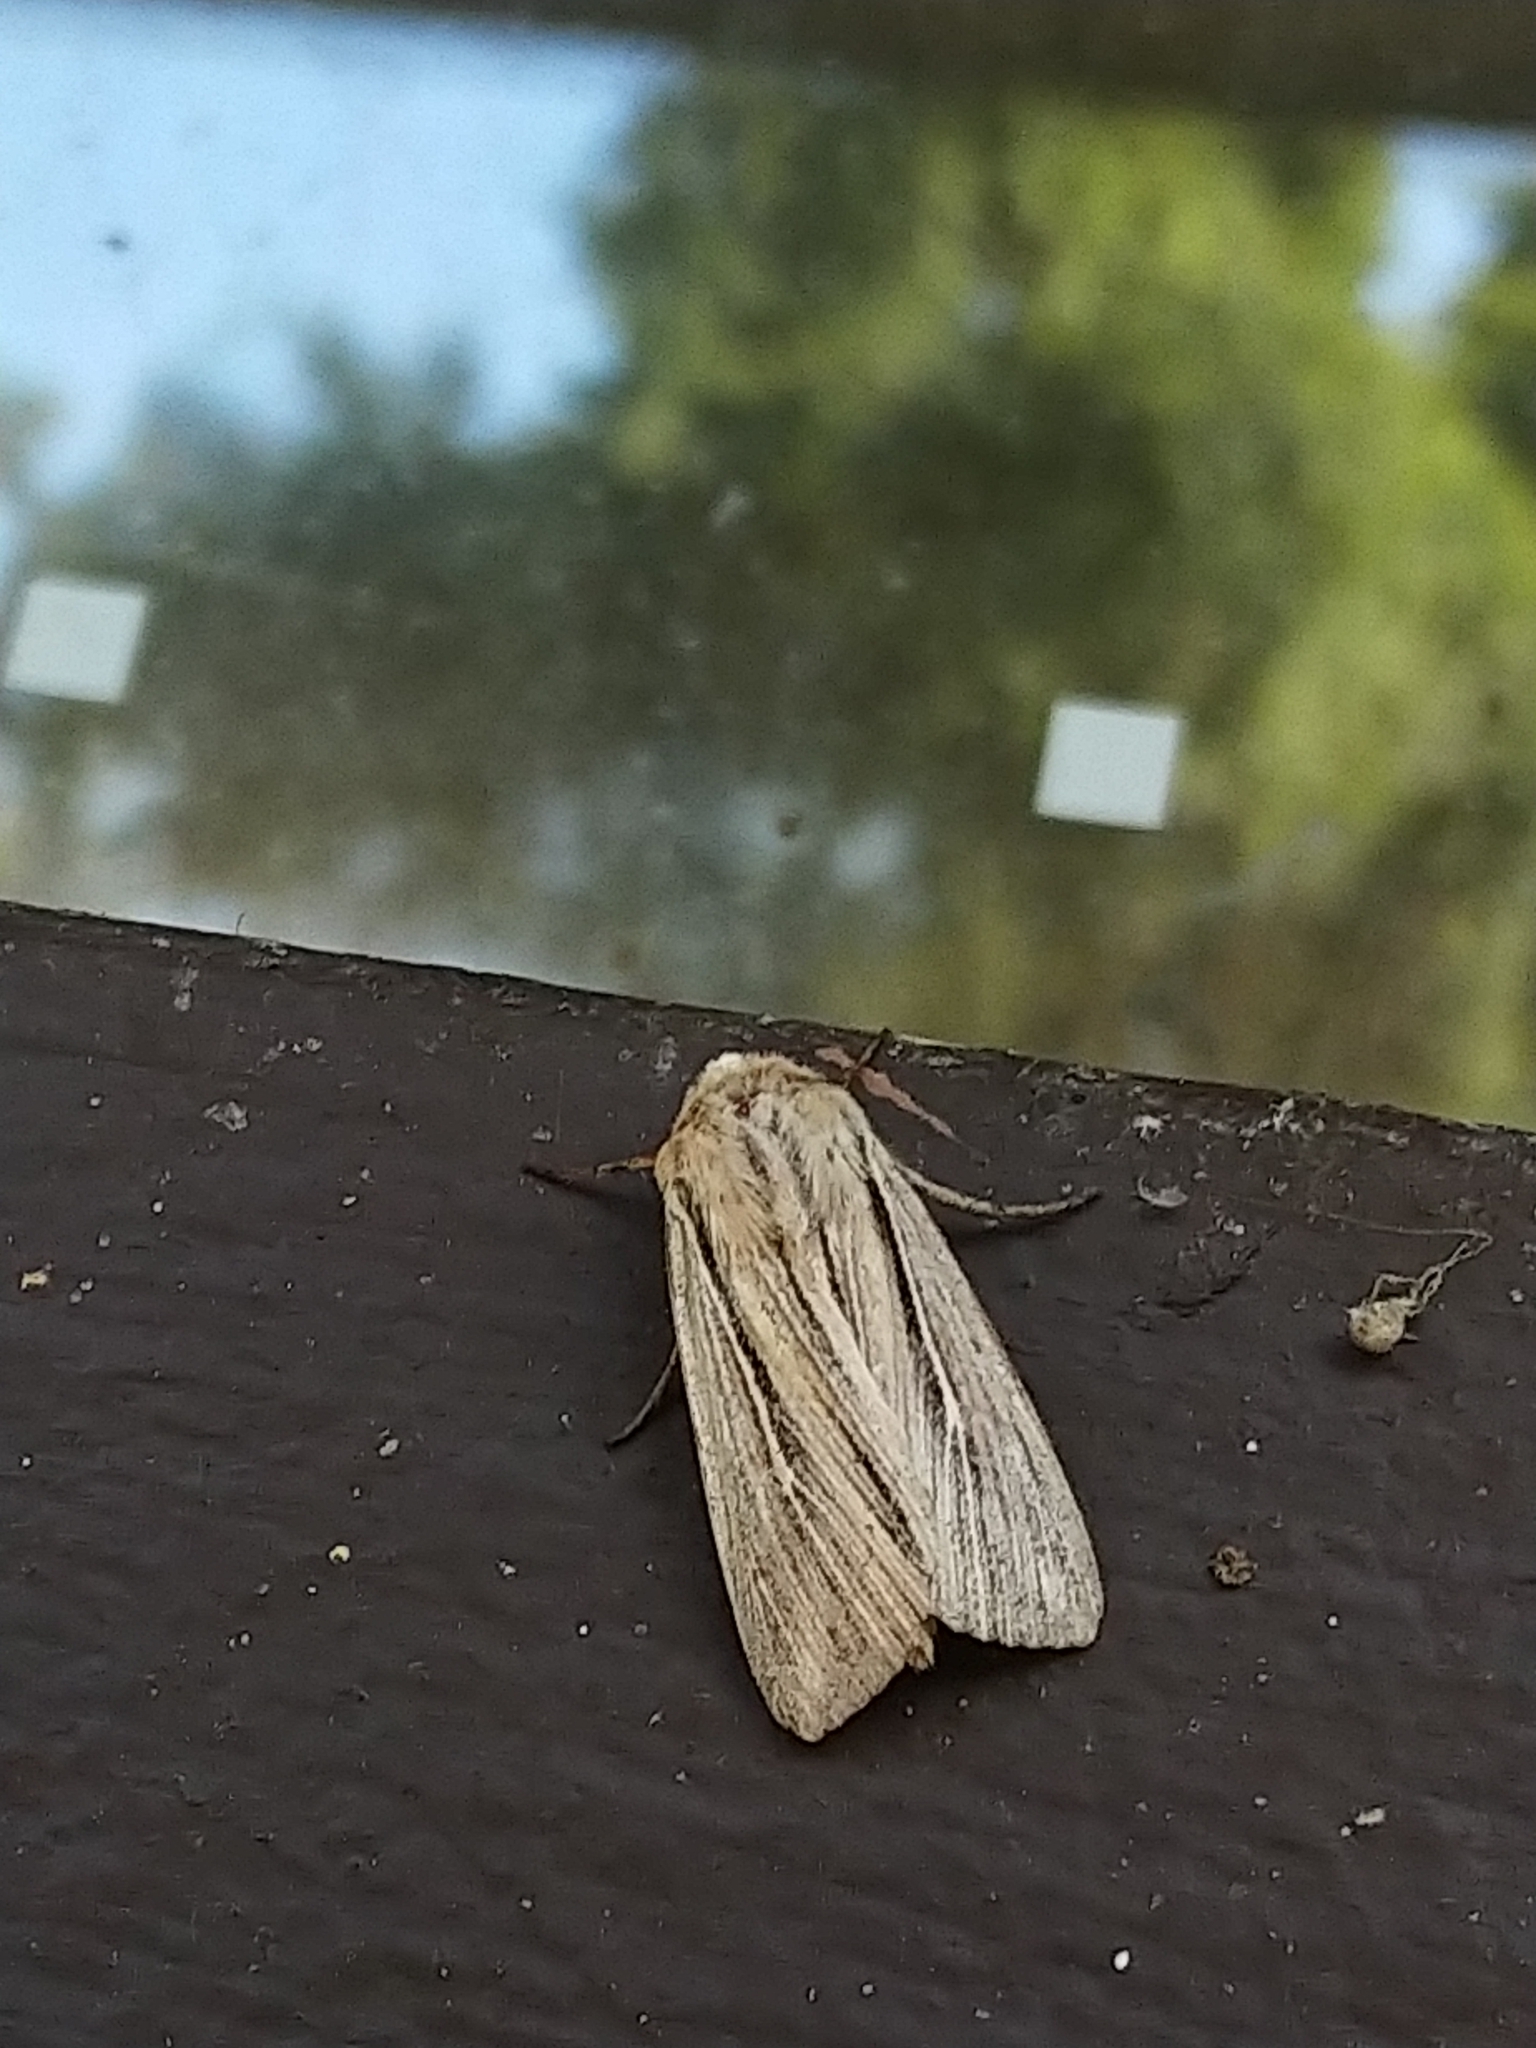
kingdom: Animalia
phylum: Arthropoda
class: Insecta
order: Lepidoptera
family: Noctuidae
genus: Leucania
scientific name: Leucania commoides
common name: Two-lined wainscot
